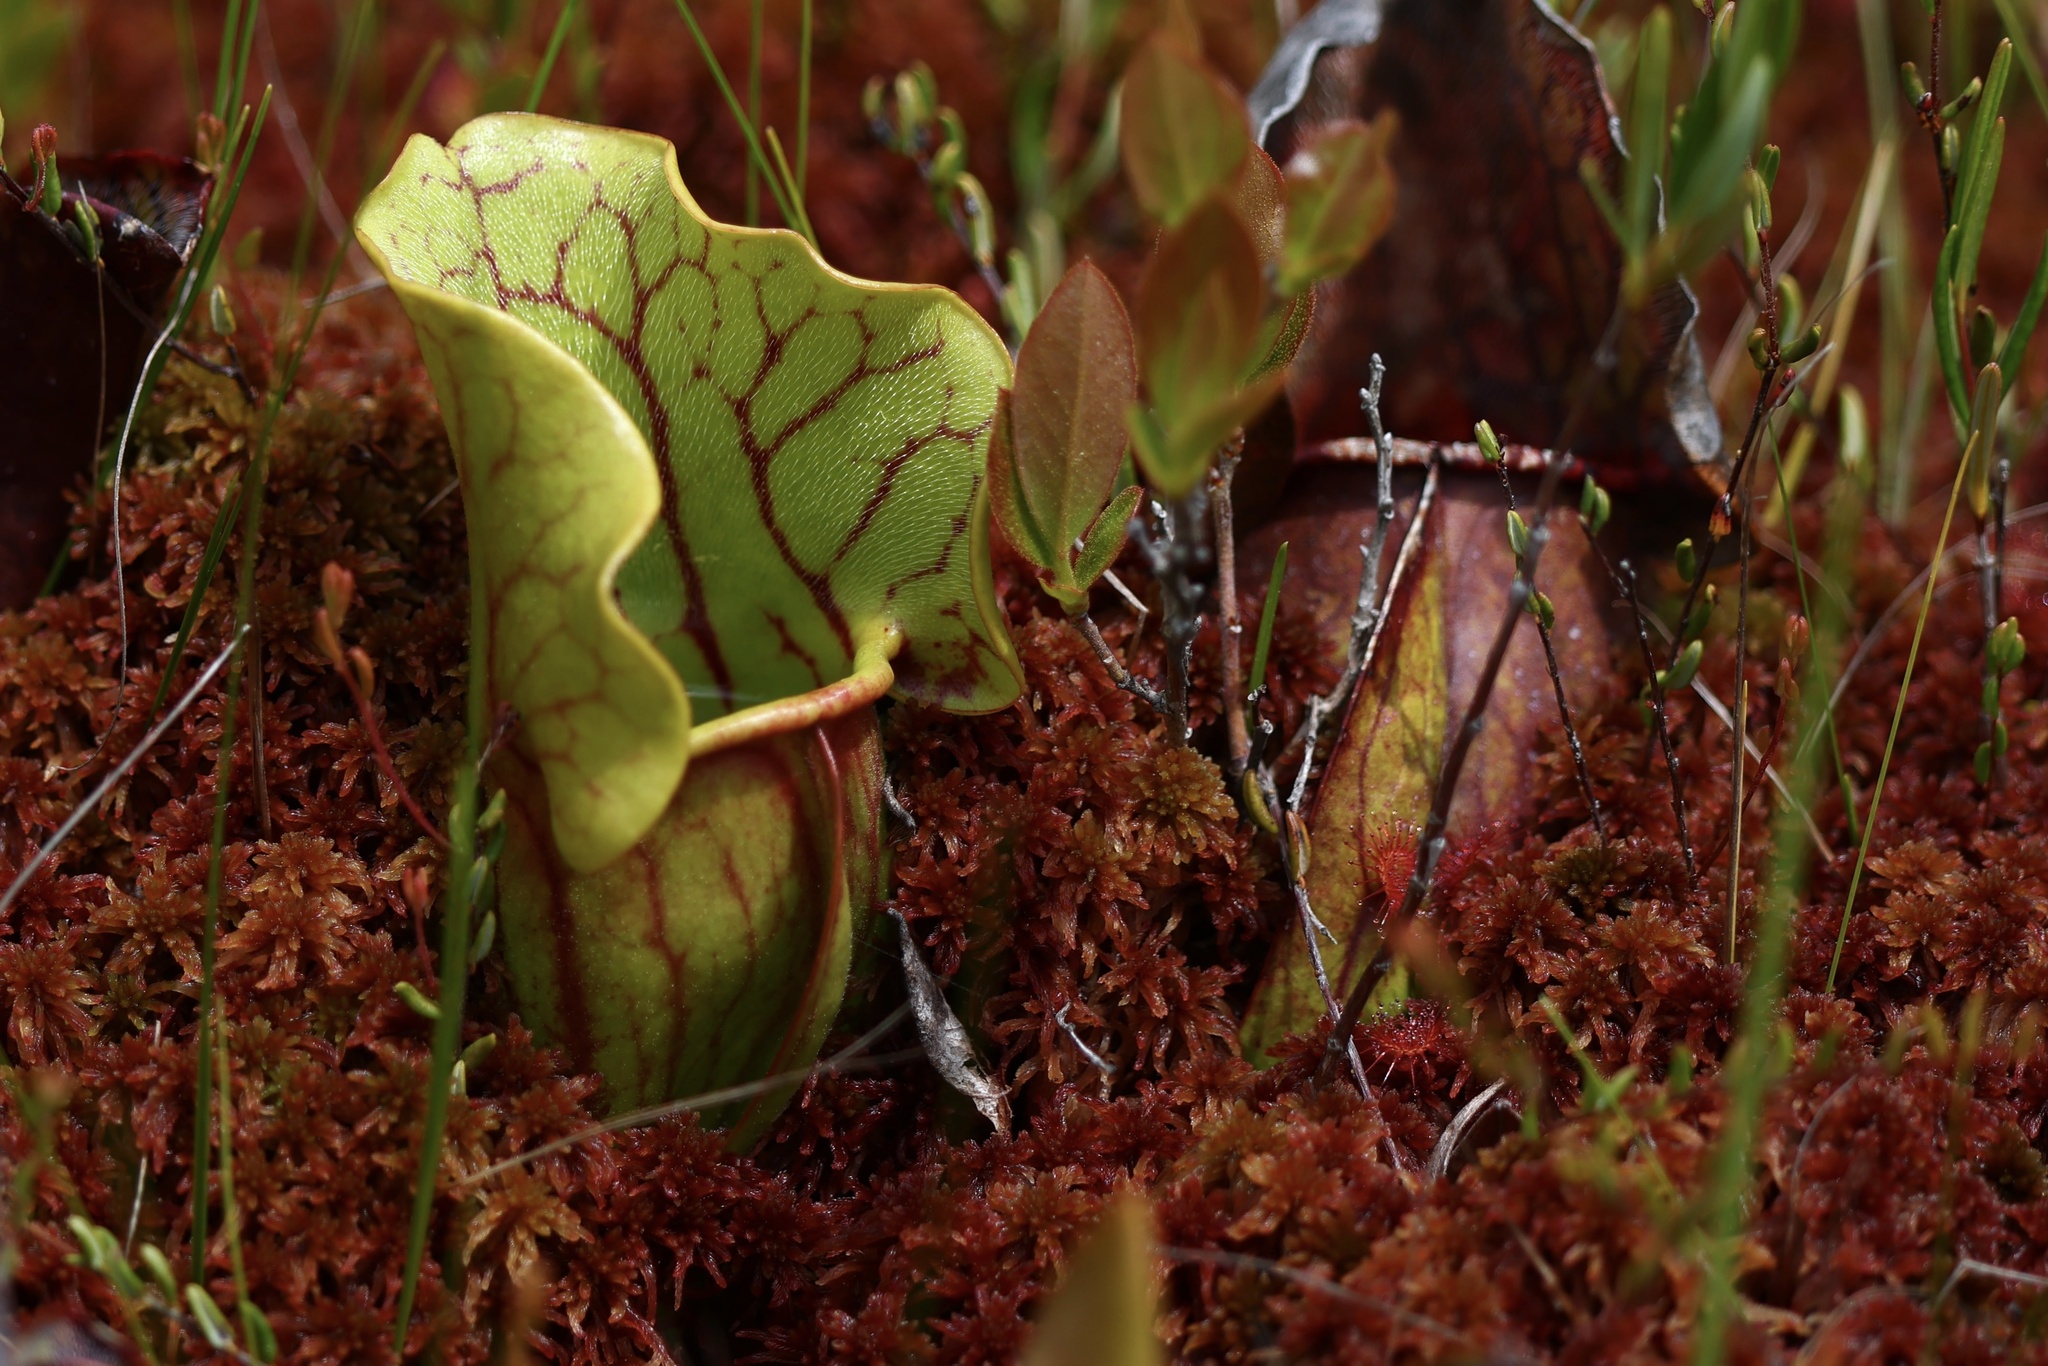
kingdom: Plantae
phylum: Tracheophyta
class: Magnoliopsida
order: Ericales
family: Sarraceniaceae
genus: Sarracenia
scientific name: Sarracenia purpurea
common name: Pitcherplant
